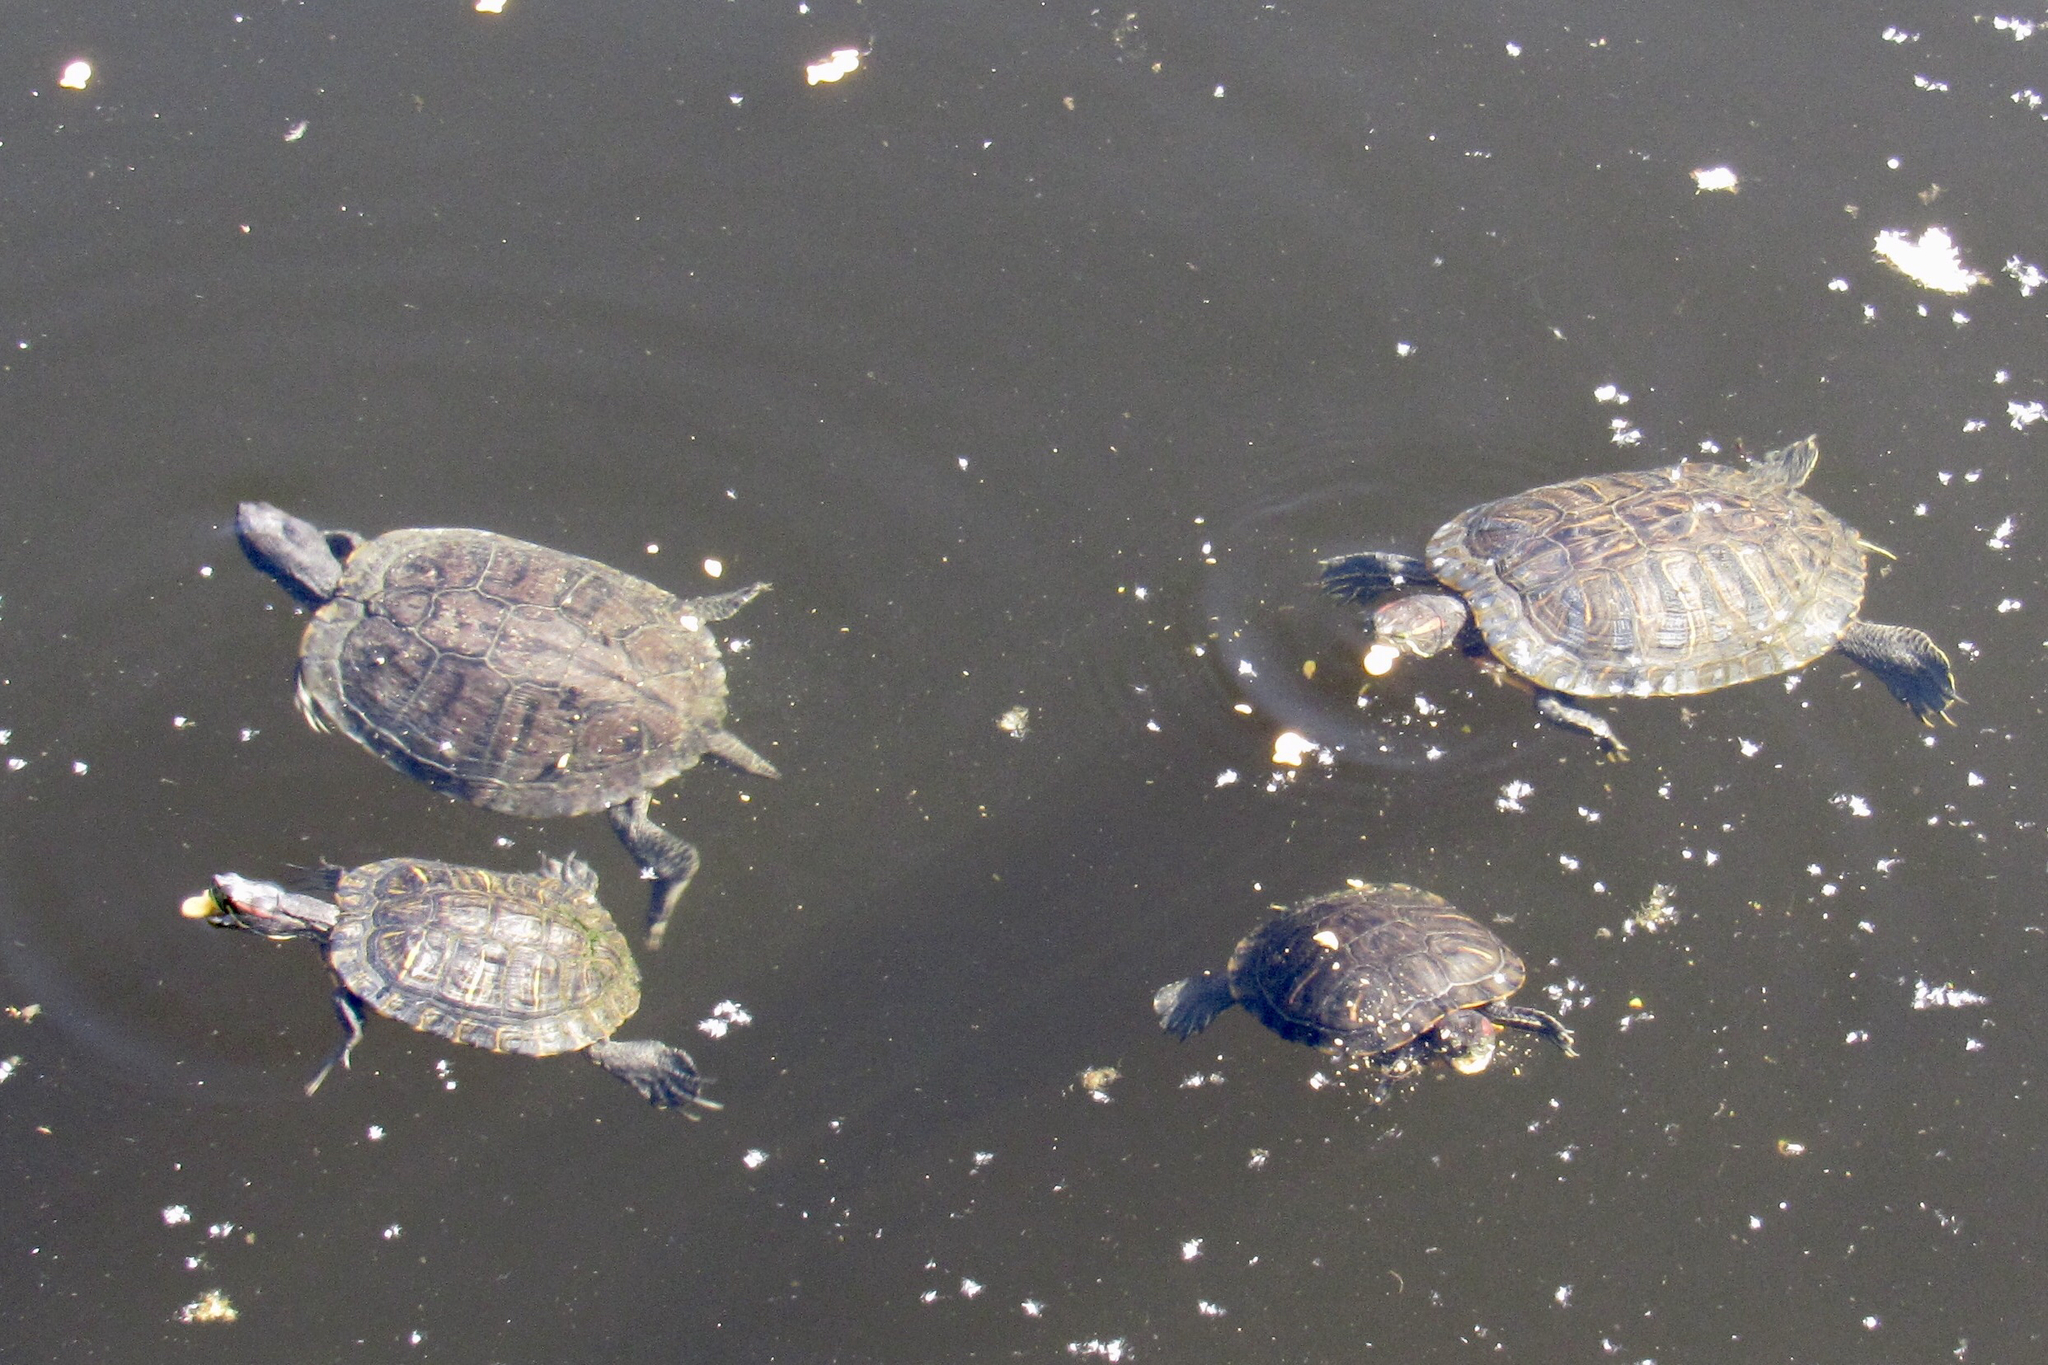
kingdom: Animalia
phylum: Chordata
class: Testudines
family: Emydidae
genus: Trachemys
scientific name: Trachemys scripta
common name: Slider
